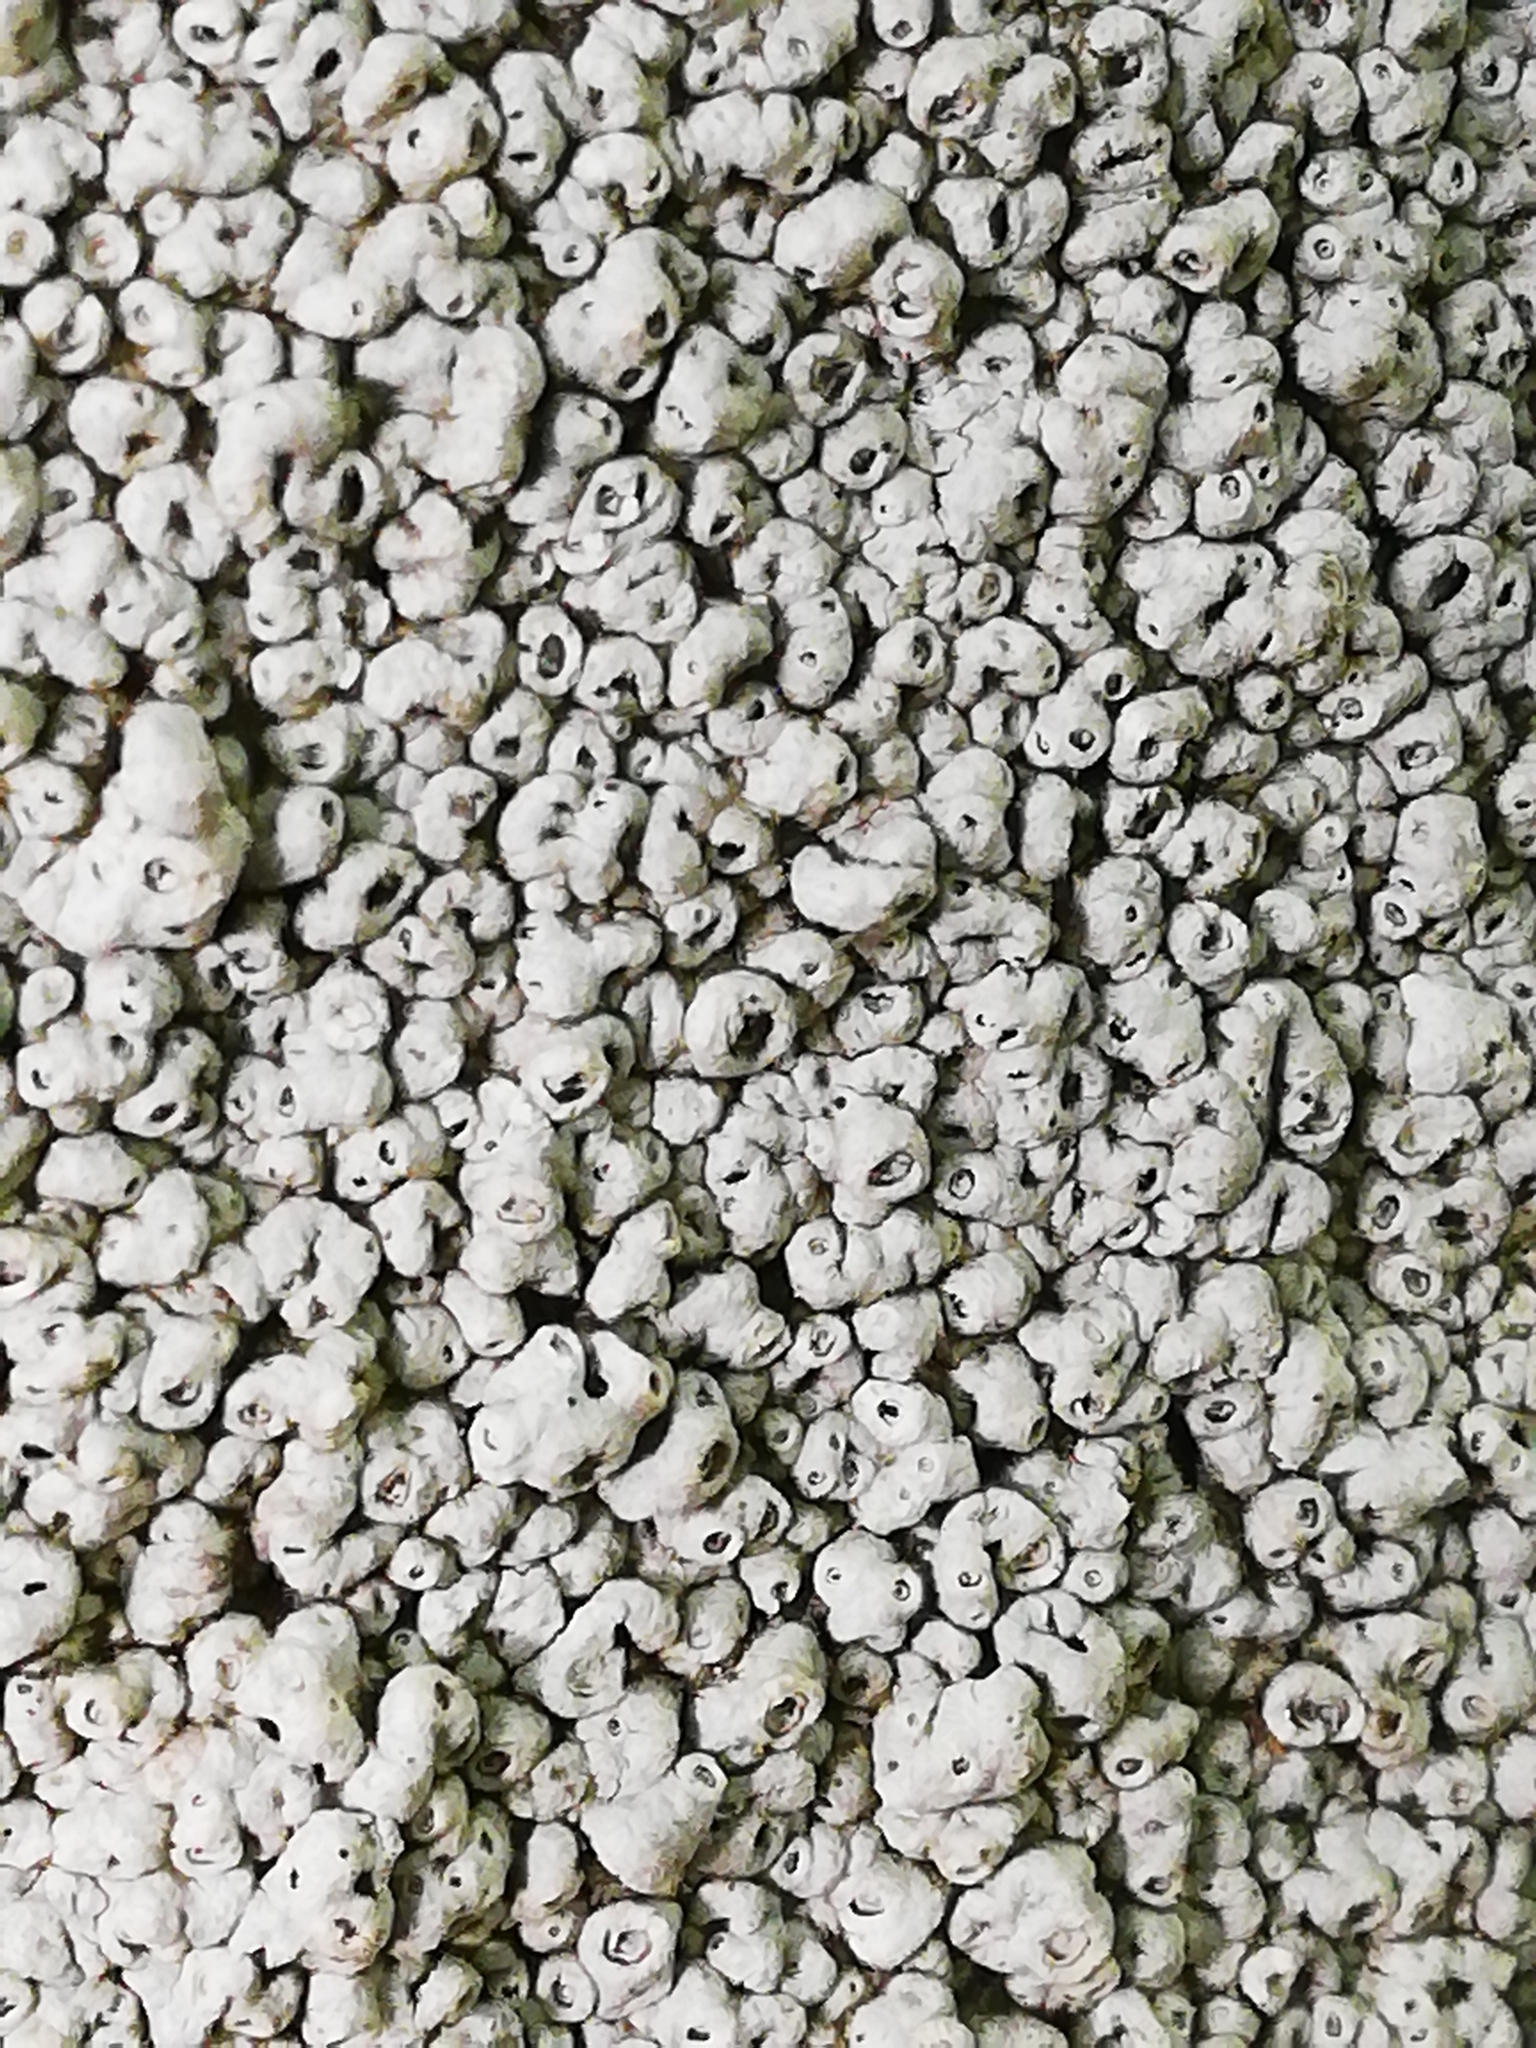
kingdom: Fungi
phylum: Ascomycota
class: Lecanoromycetes
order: Ostropales
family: Graphidaceae
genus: Thelotrema
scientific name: Thelotrema lepadinum
